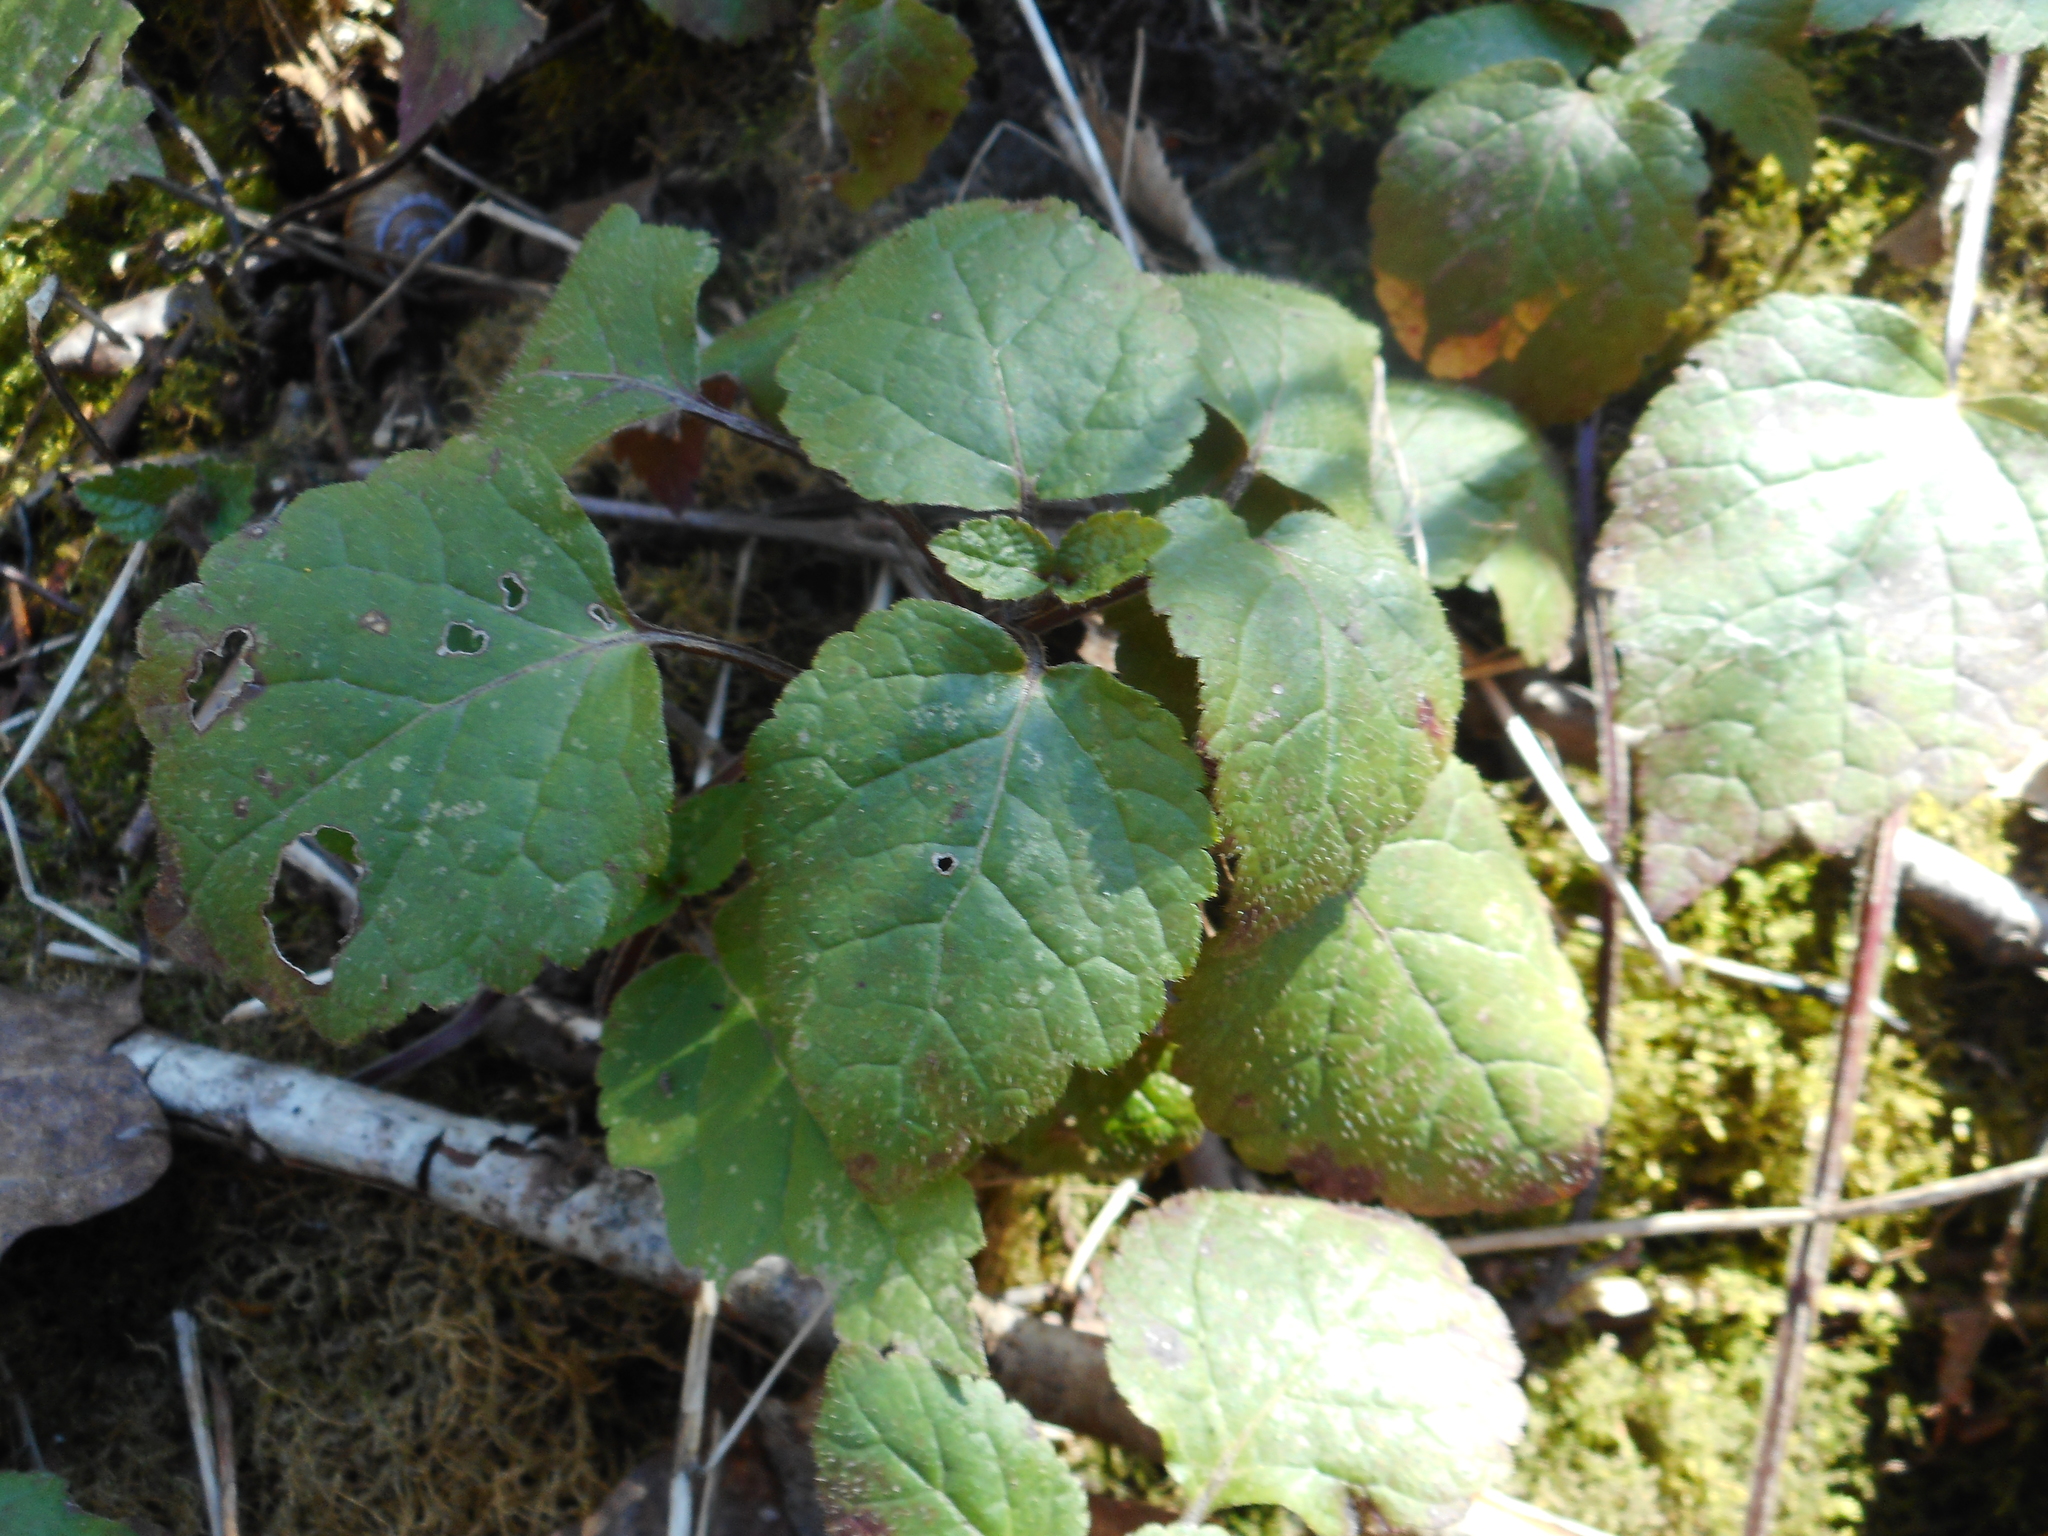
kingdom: Plantae
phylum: Tracheophyta
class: Magnoliopsida
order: Lamiales
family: Lamiaceae
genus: Lamium
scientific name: Lamium galeobdolon
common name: Yellow archangel
